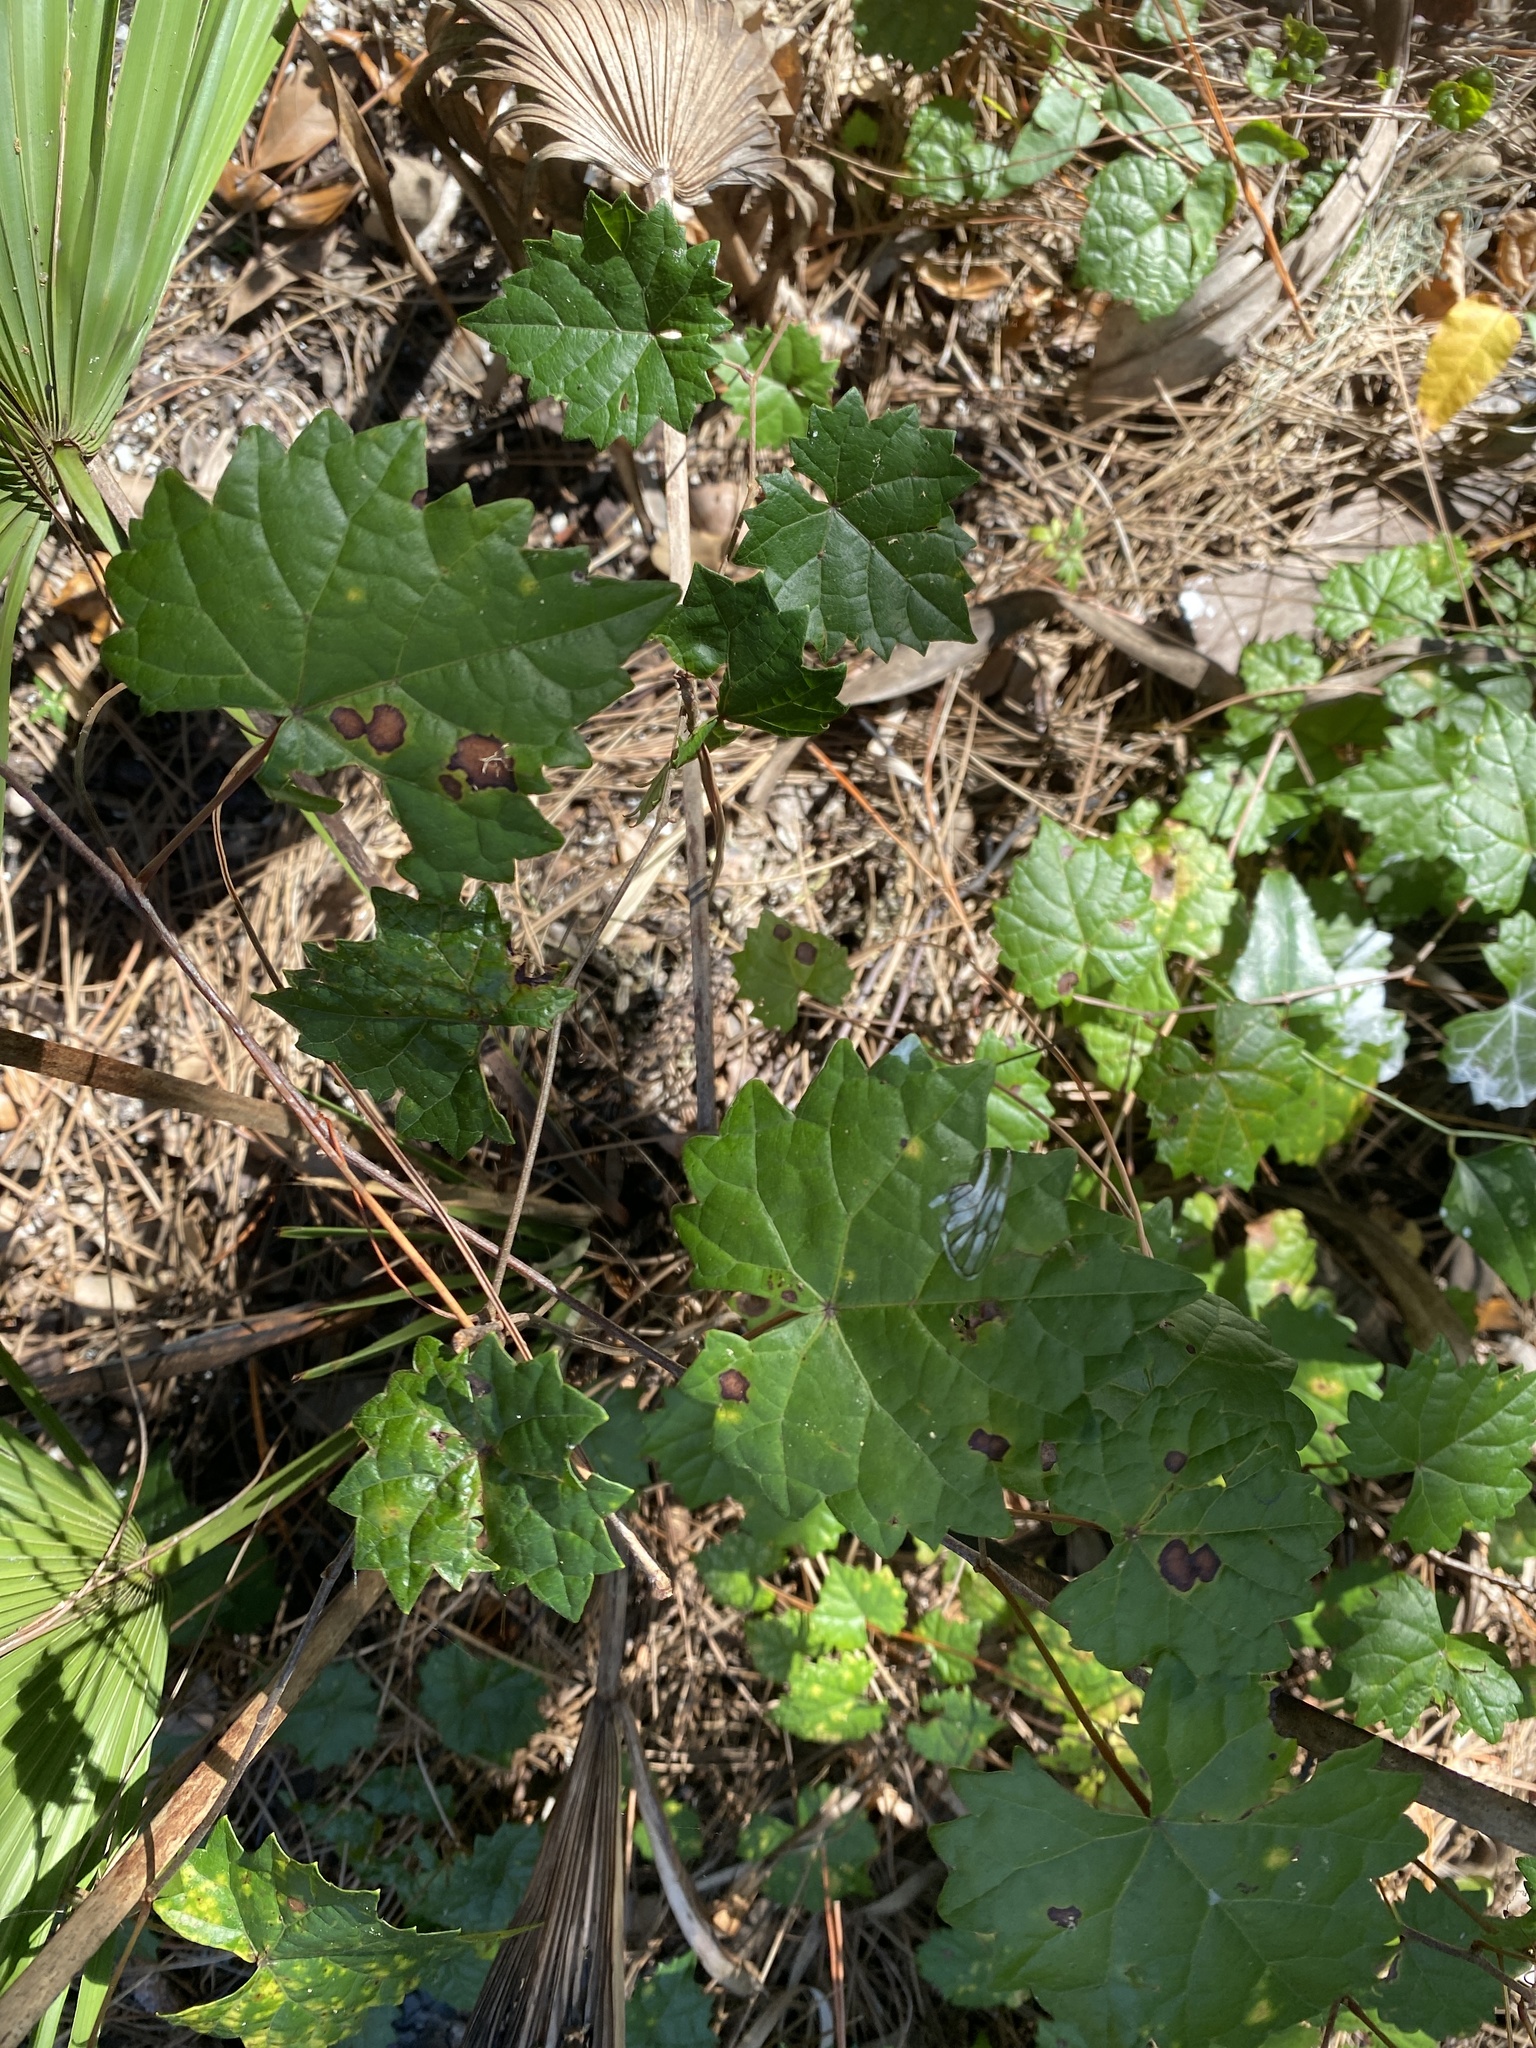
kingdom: Plantae
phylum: Tracheophyta
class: Magnoliopsida
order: Vitales
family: Vitaceae
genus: Vitis
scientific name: Vitis rotundifolia
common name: Muscadine grape
